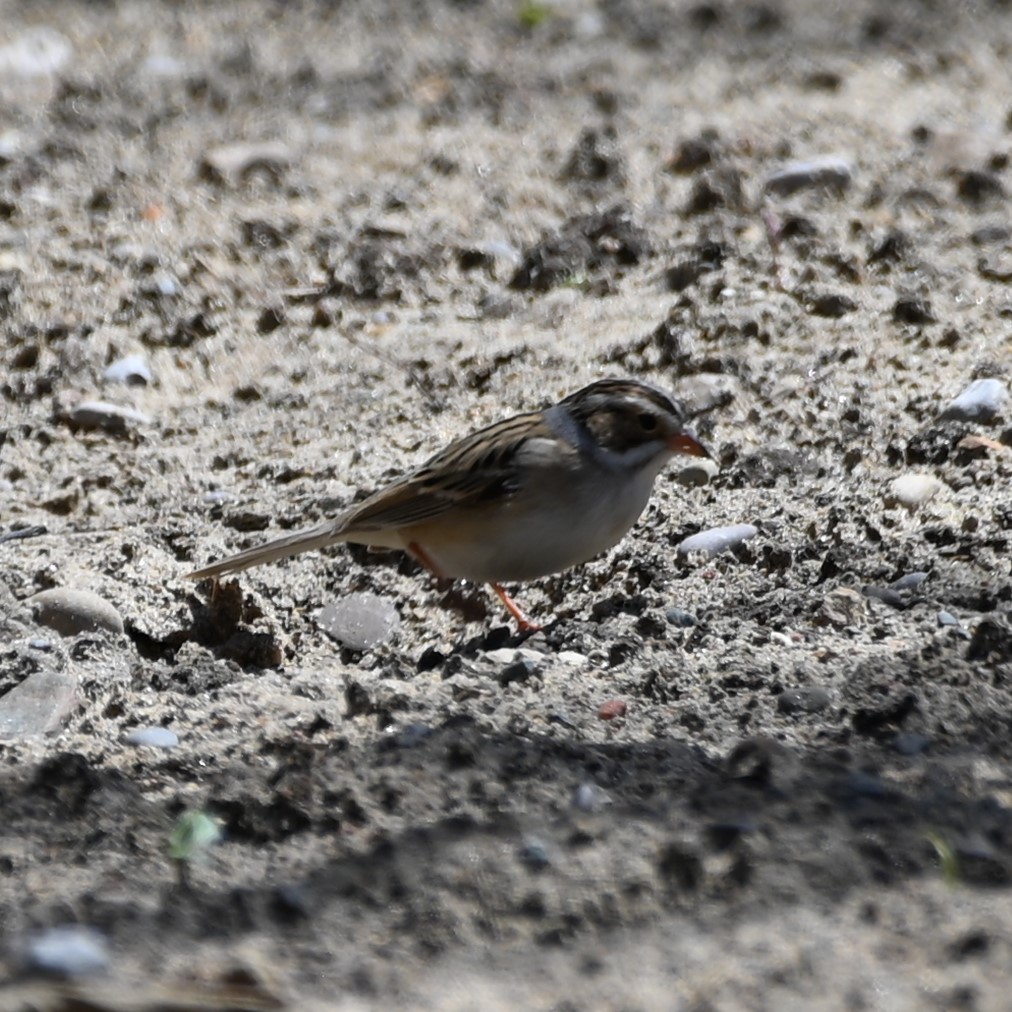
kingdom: Animalia
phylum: Chordata
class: Aves
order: Passeriformes
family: Passerellidae
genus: Spizella
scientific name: Spizella pallida
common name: Clay-colored sparrow
